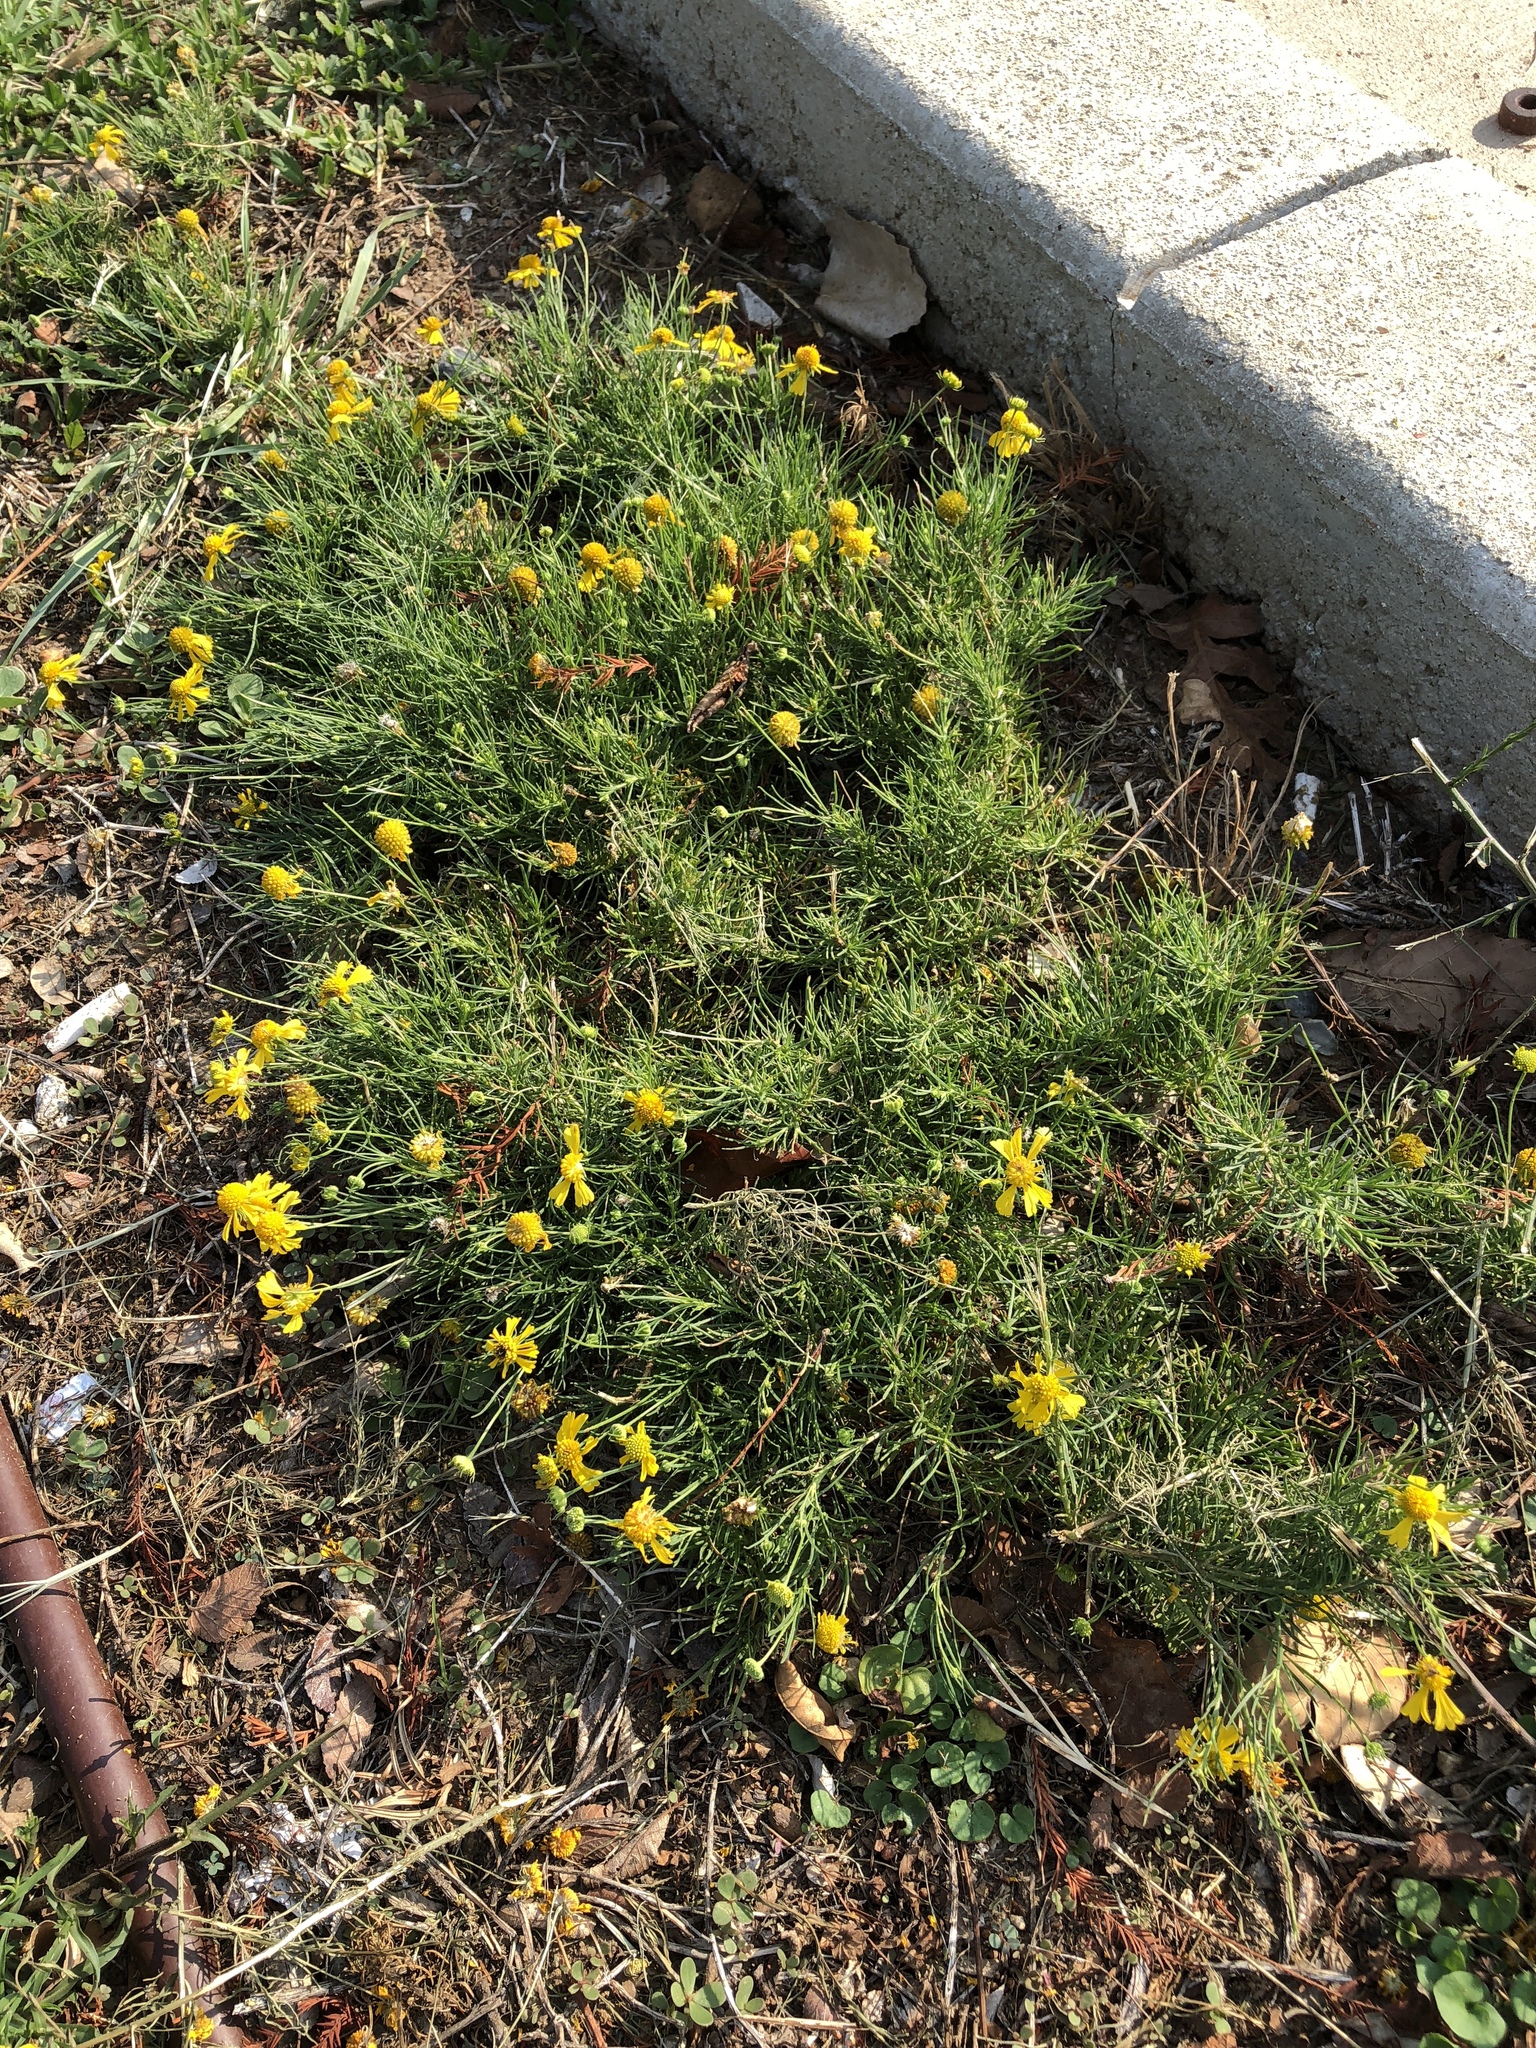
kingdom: Plantae
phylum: Tracheophyta
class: Magnoliopsida
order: Asterales
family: Asteraceae
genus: Helenium
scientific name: Helenium amarum
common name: Bitter sneezeweed
